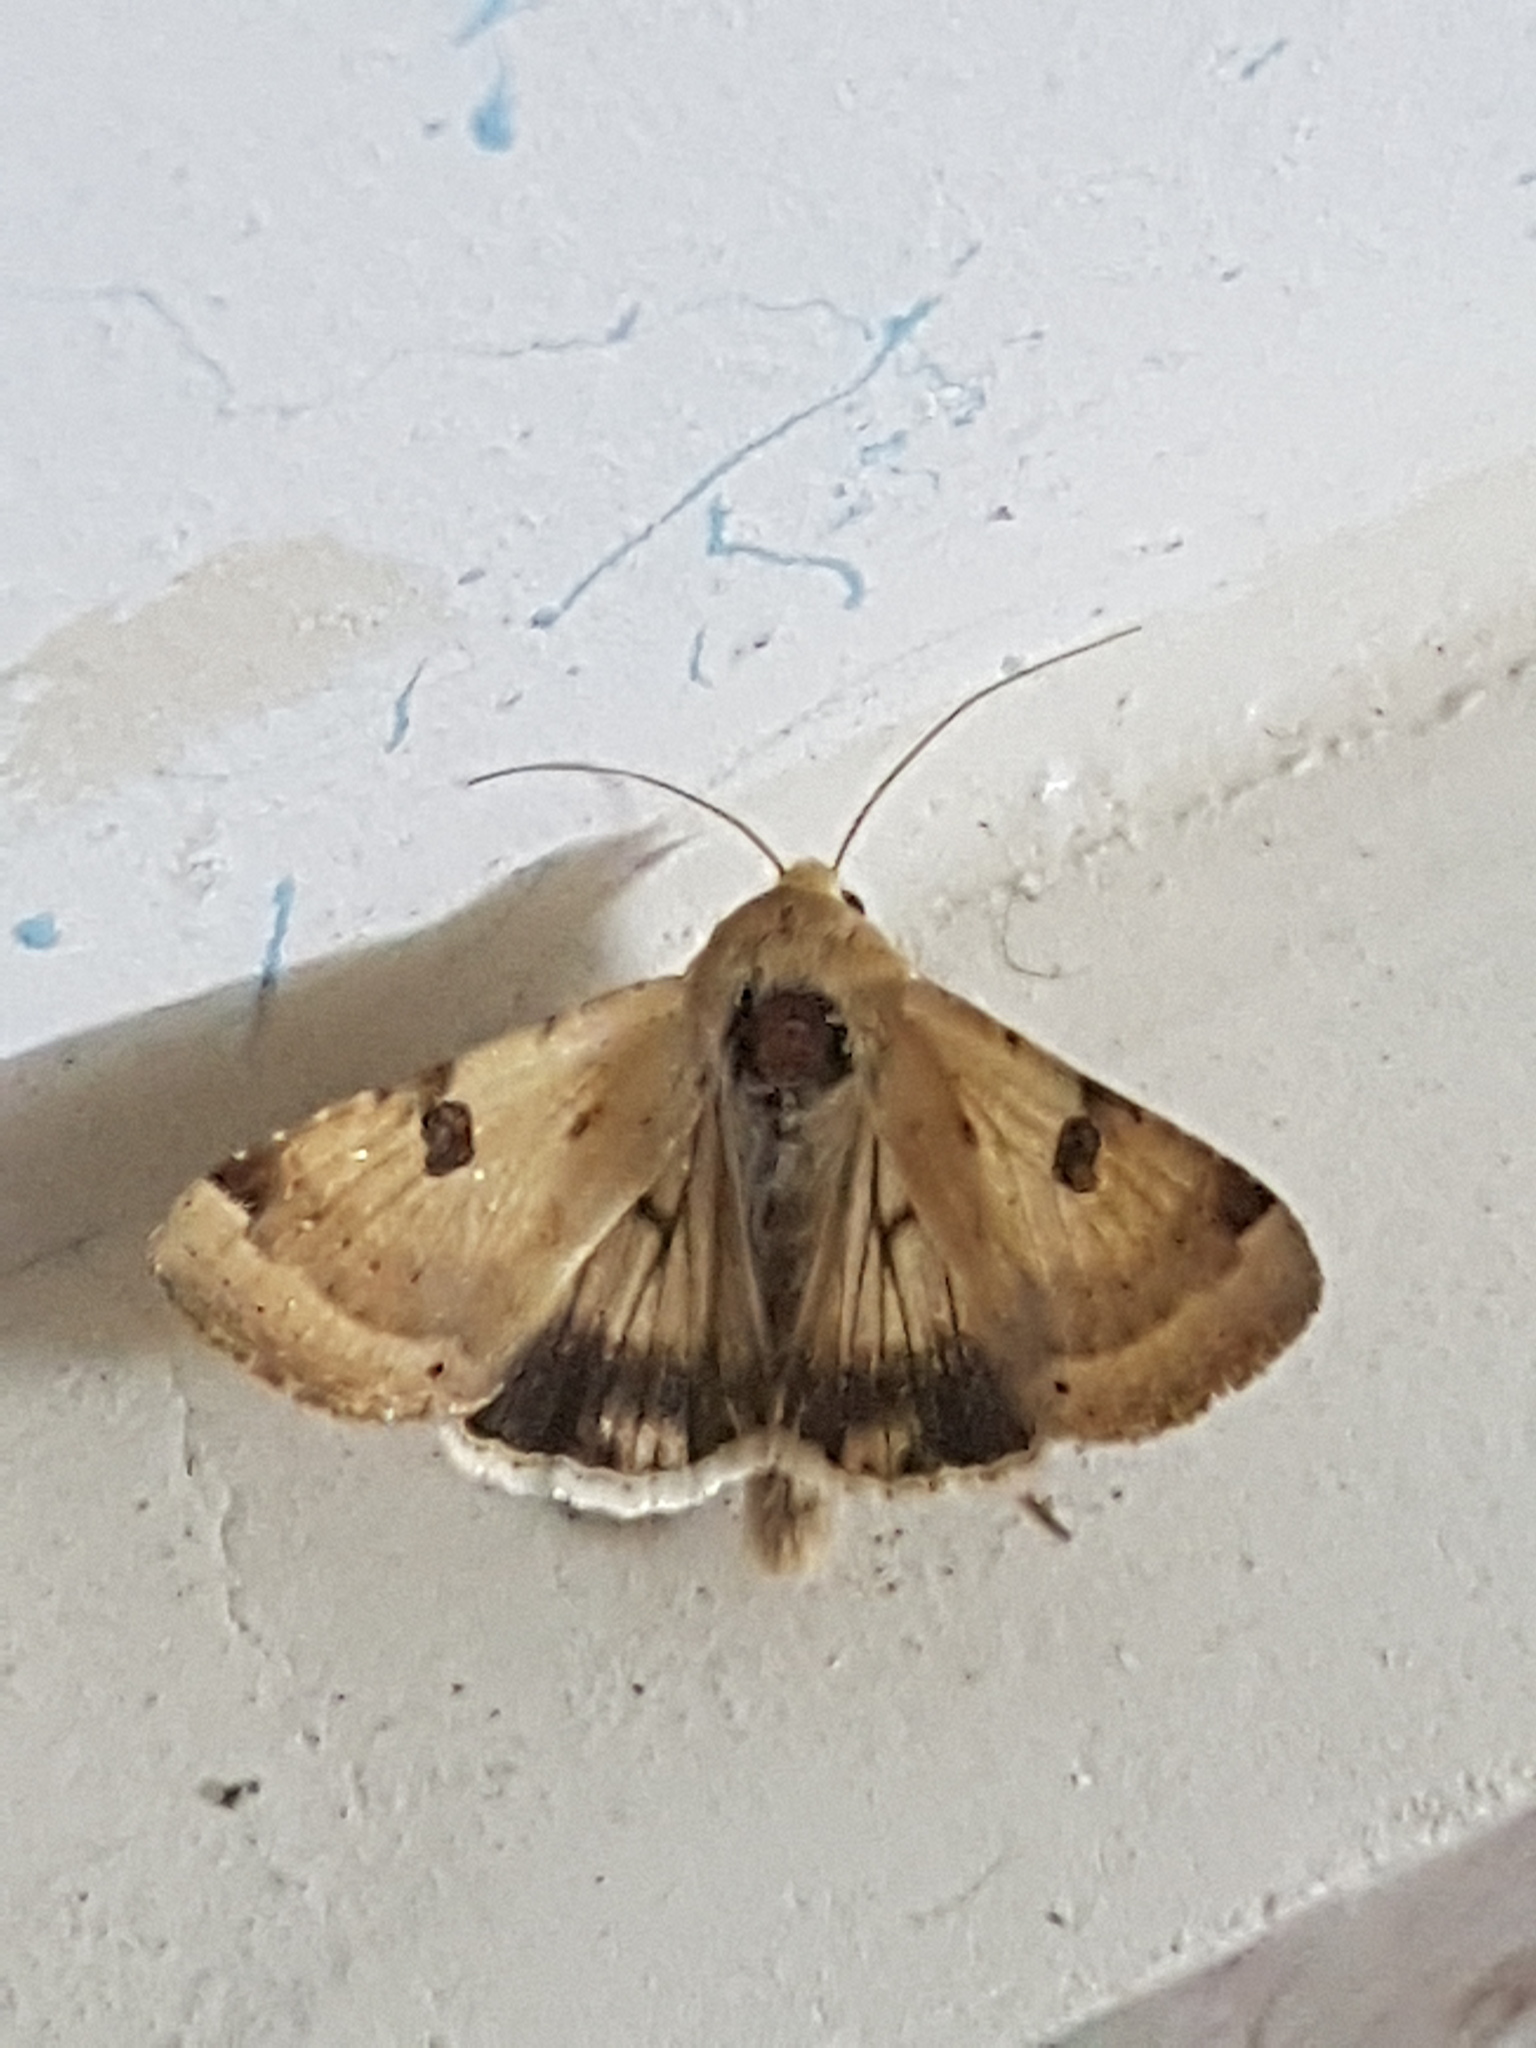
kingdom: Animalia
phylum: Arthropoda
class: Insecta
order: Lepidoptera
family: Noctuidae
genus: Heliothis
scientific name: Heliothis peltigera
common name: Bordered straw
